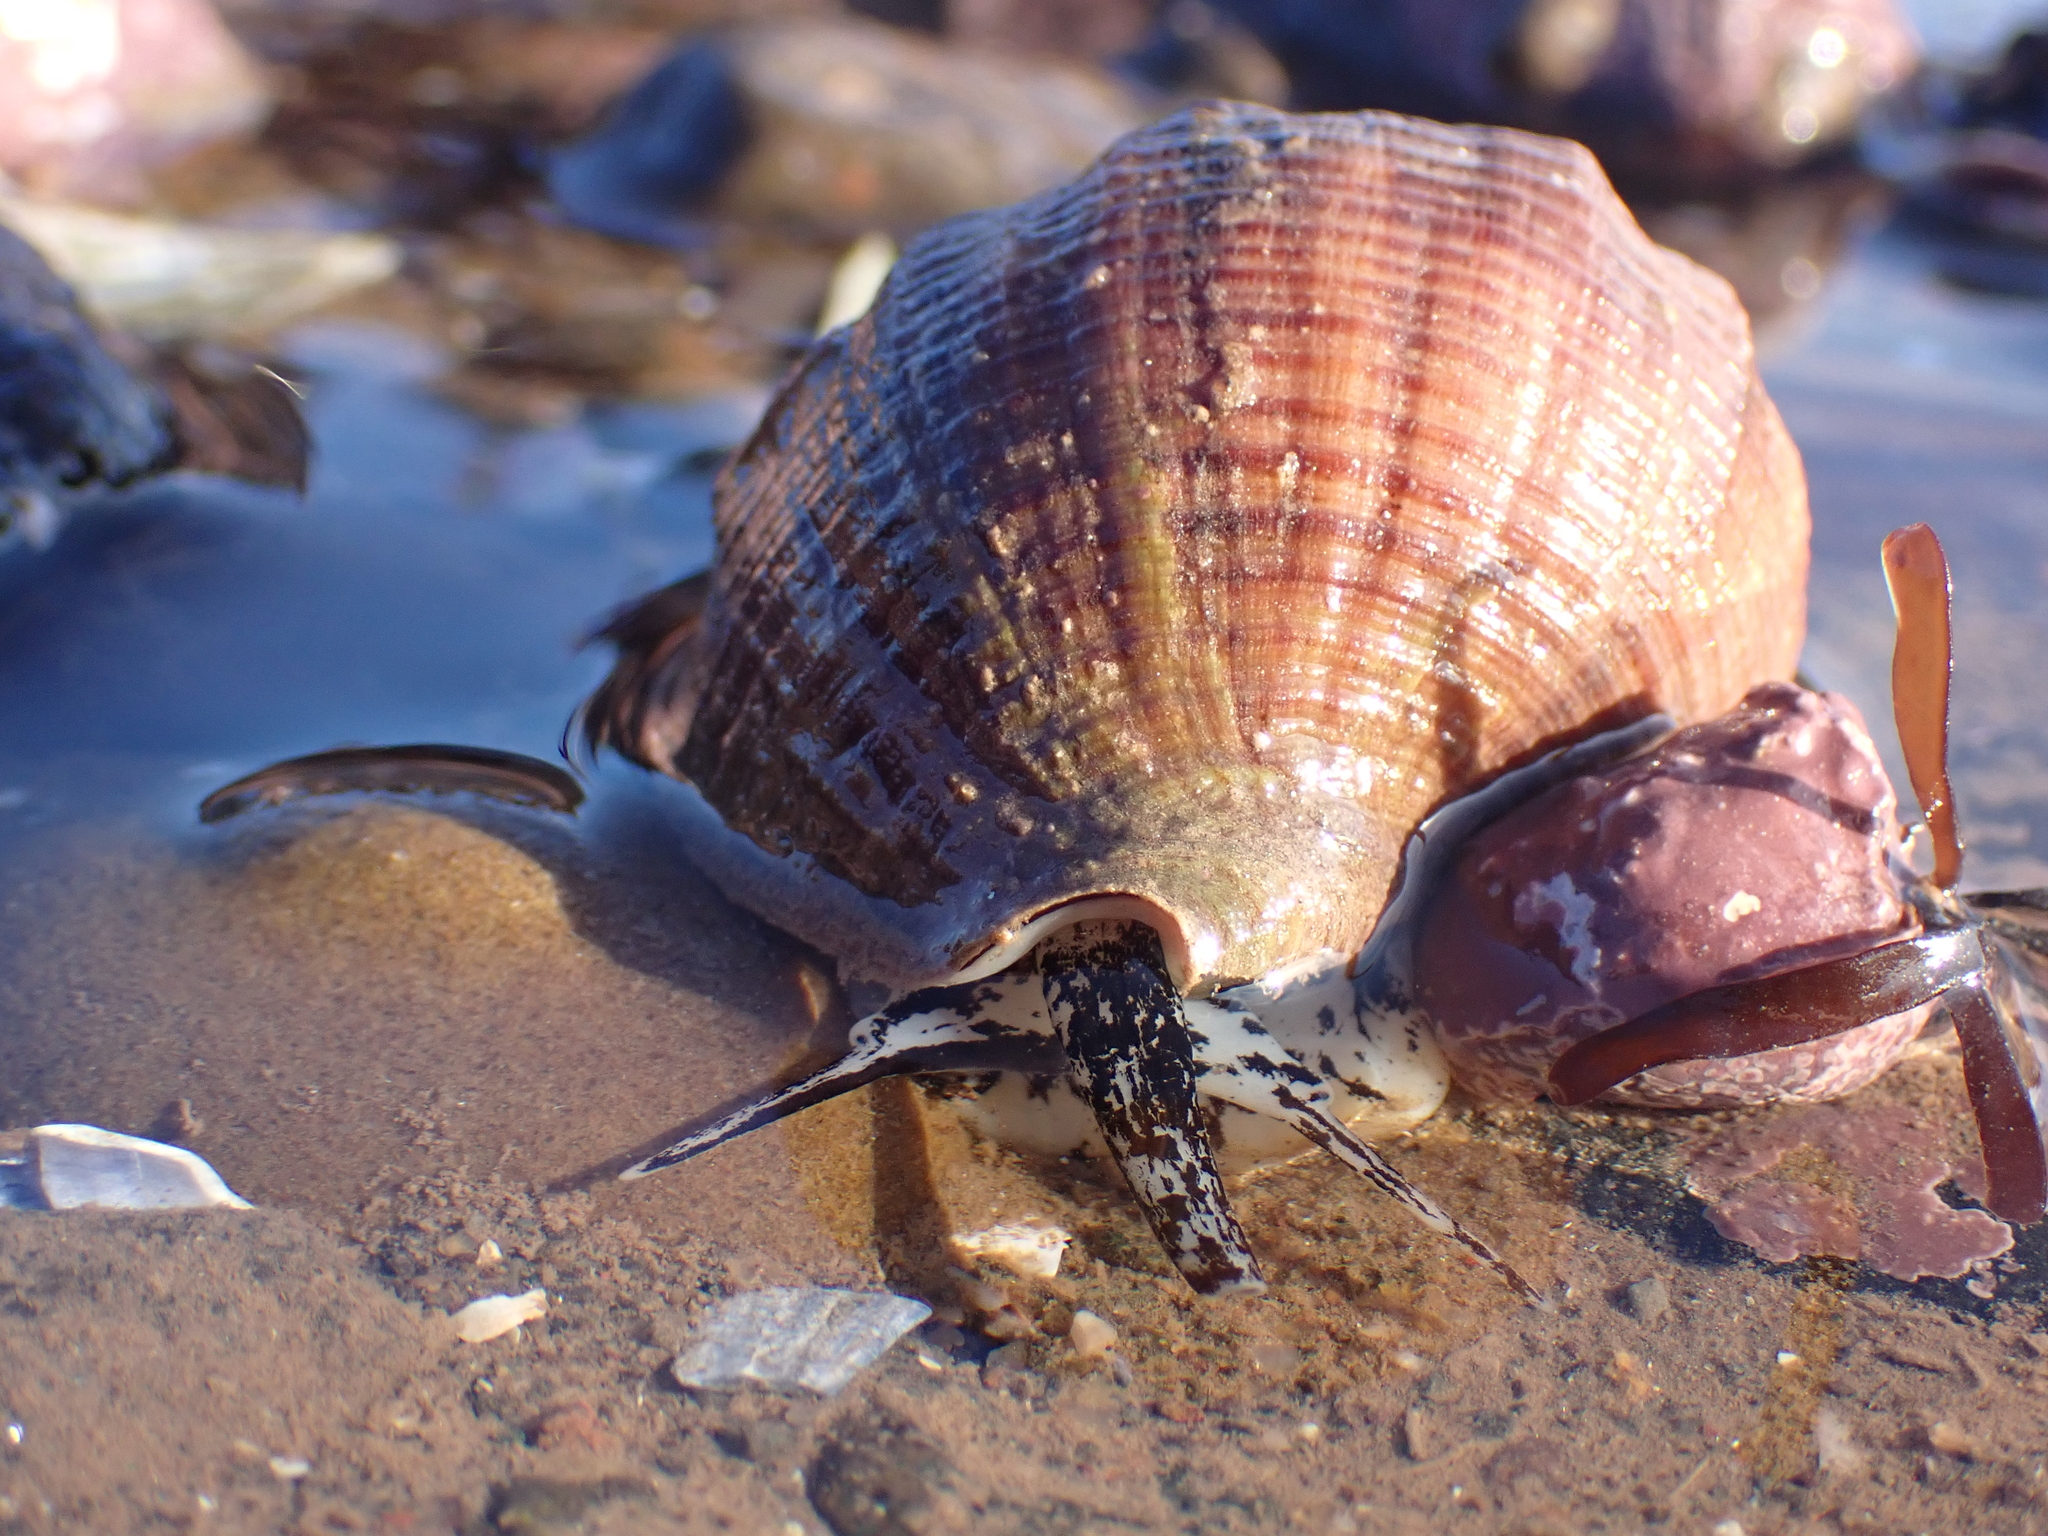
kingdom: Animalia
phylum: Mollusca
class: Gastropoda
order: Neogastropoda
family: Buccinidae
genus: Buccinum
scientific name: Buccinum undatum
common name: Common whelk
